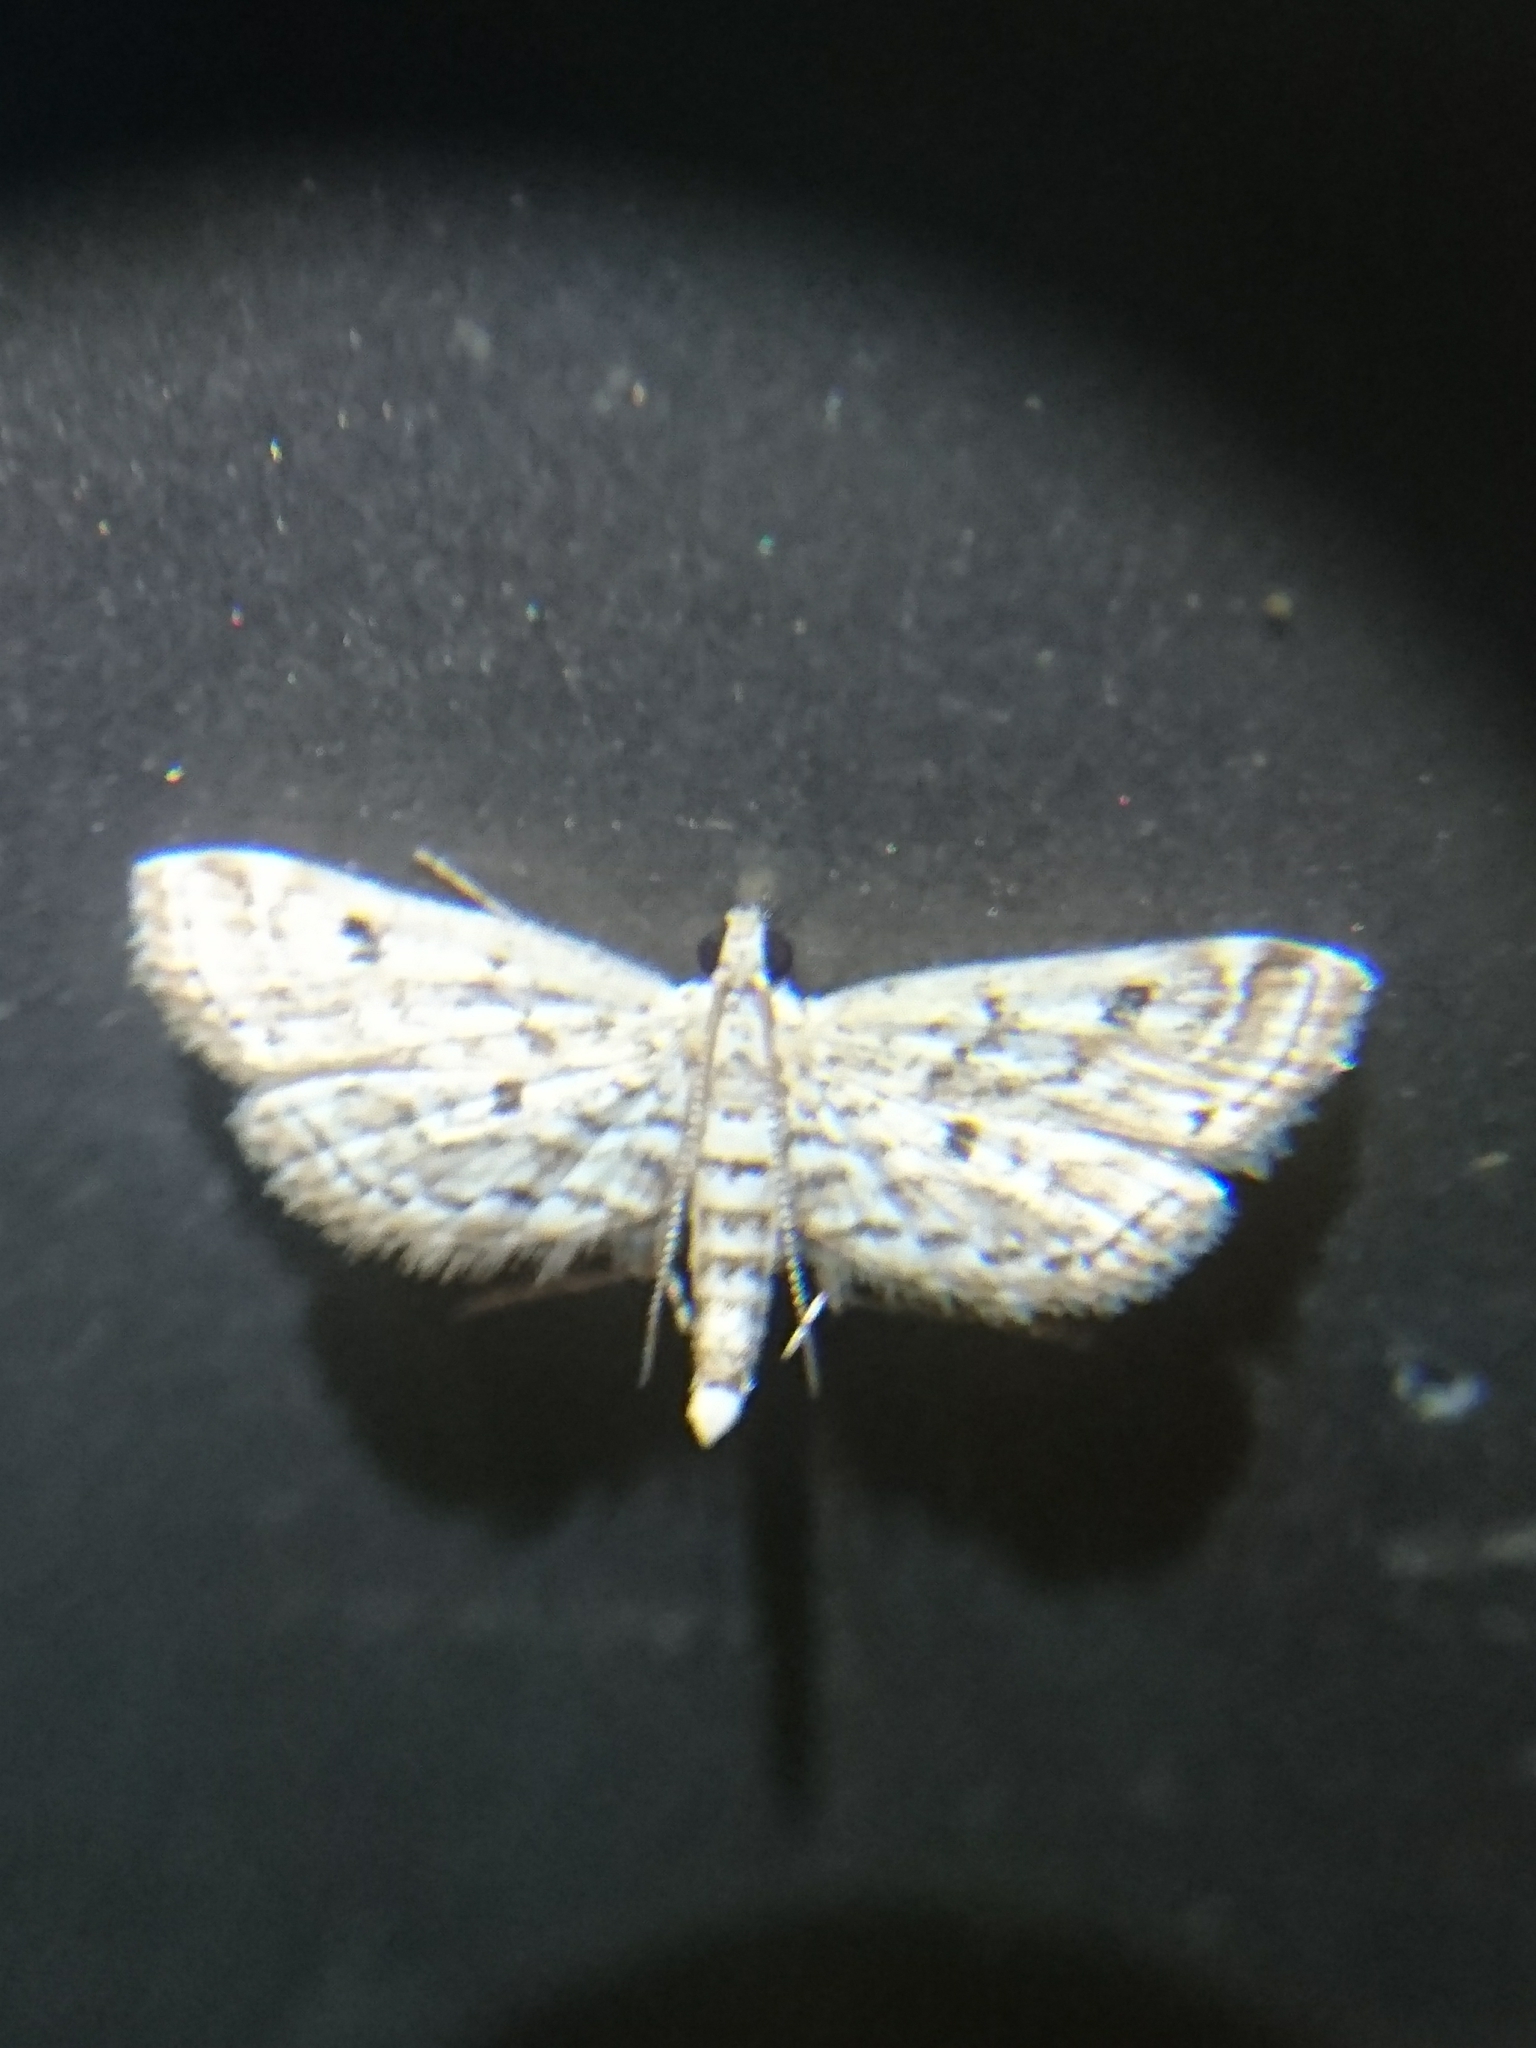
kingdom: Animalia
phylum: Arthropoda
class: Insecta
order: Lepidoptera
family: Crambidae
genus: Parapoynx
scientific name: Parapoynx allionealis
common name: Bladderwort casemaker
